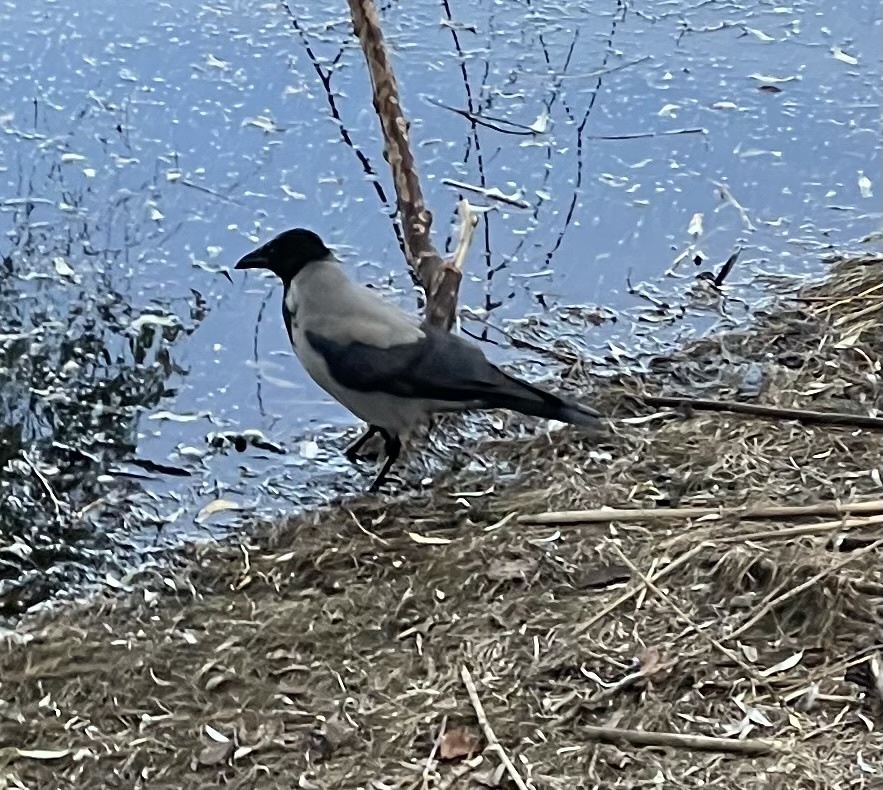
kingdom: Animalia
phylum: Chordata
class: Aves
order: Passeriformes
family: Corvidae
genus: Corvus
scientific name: Corvus cornix
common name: Hooded crow
